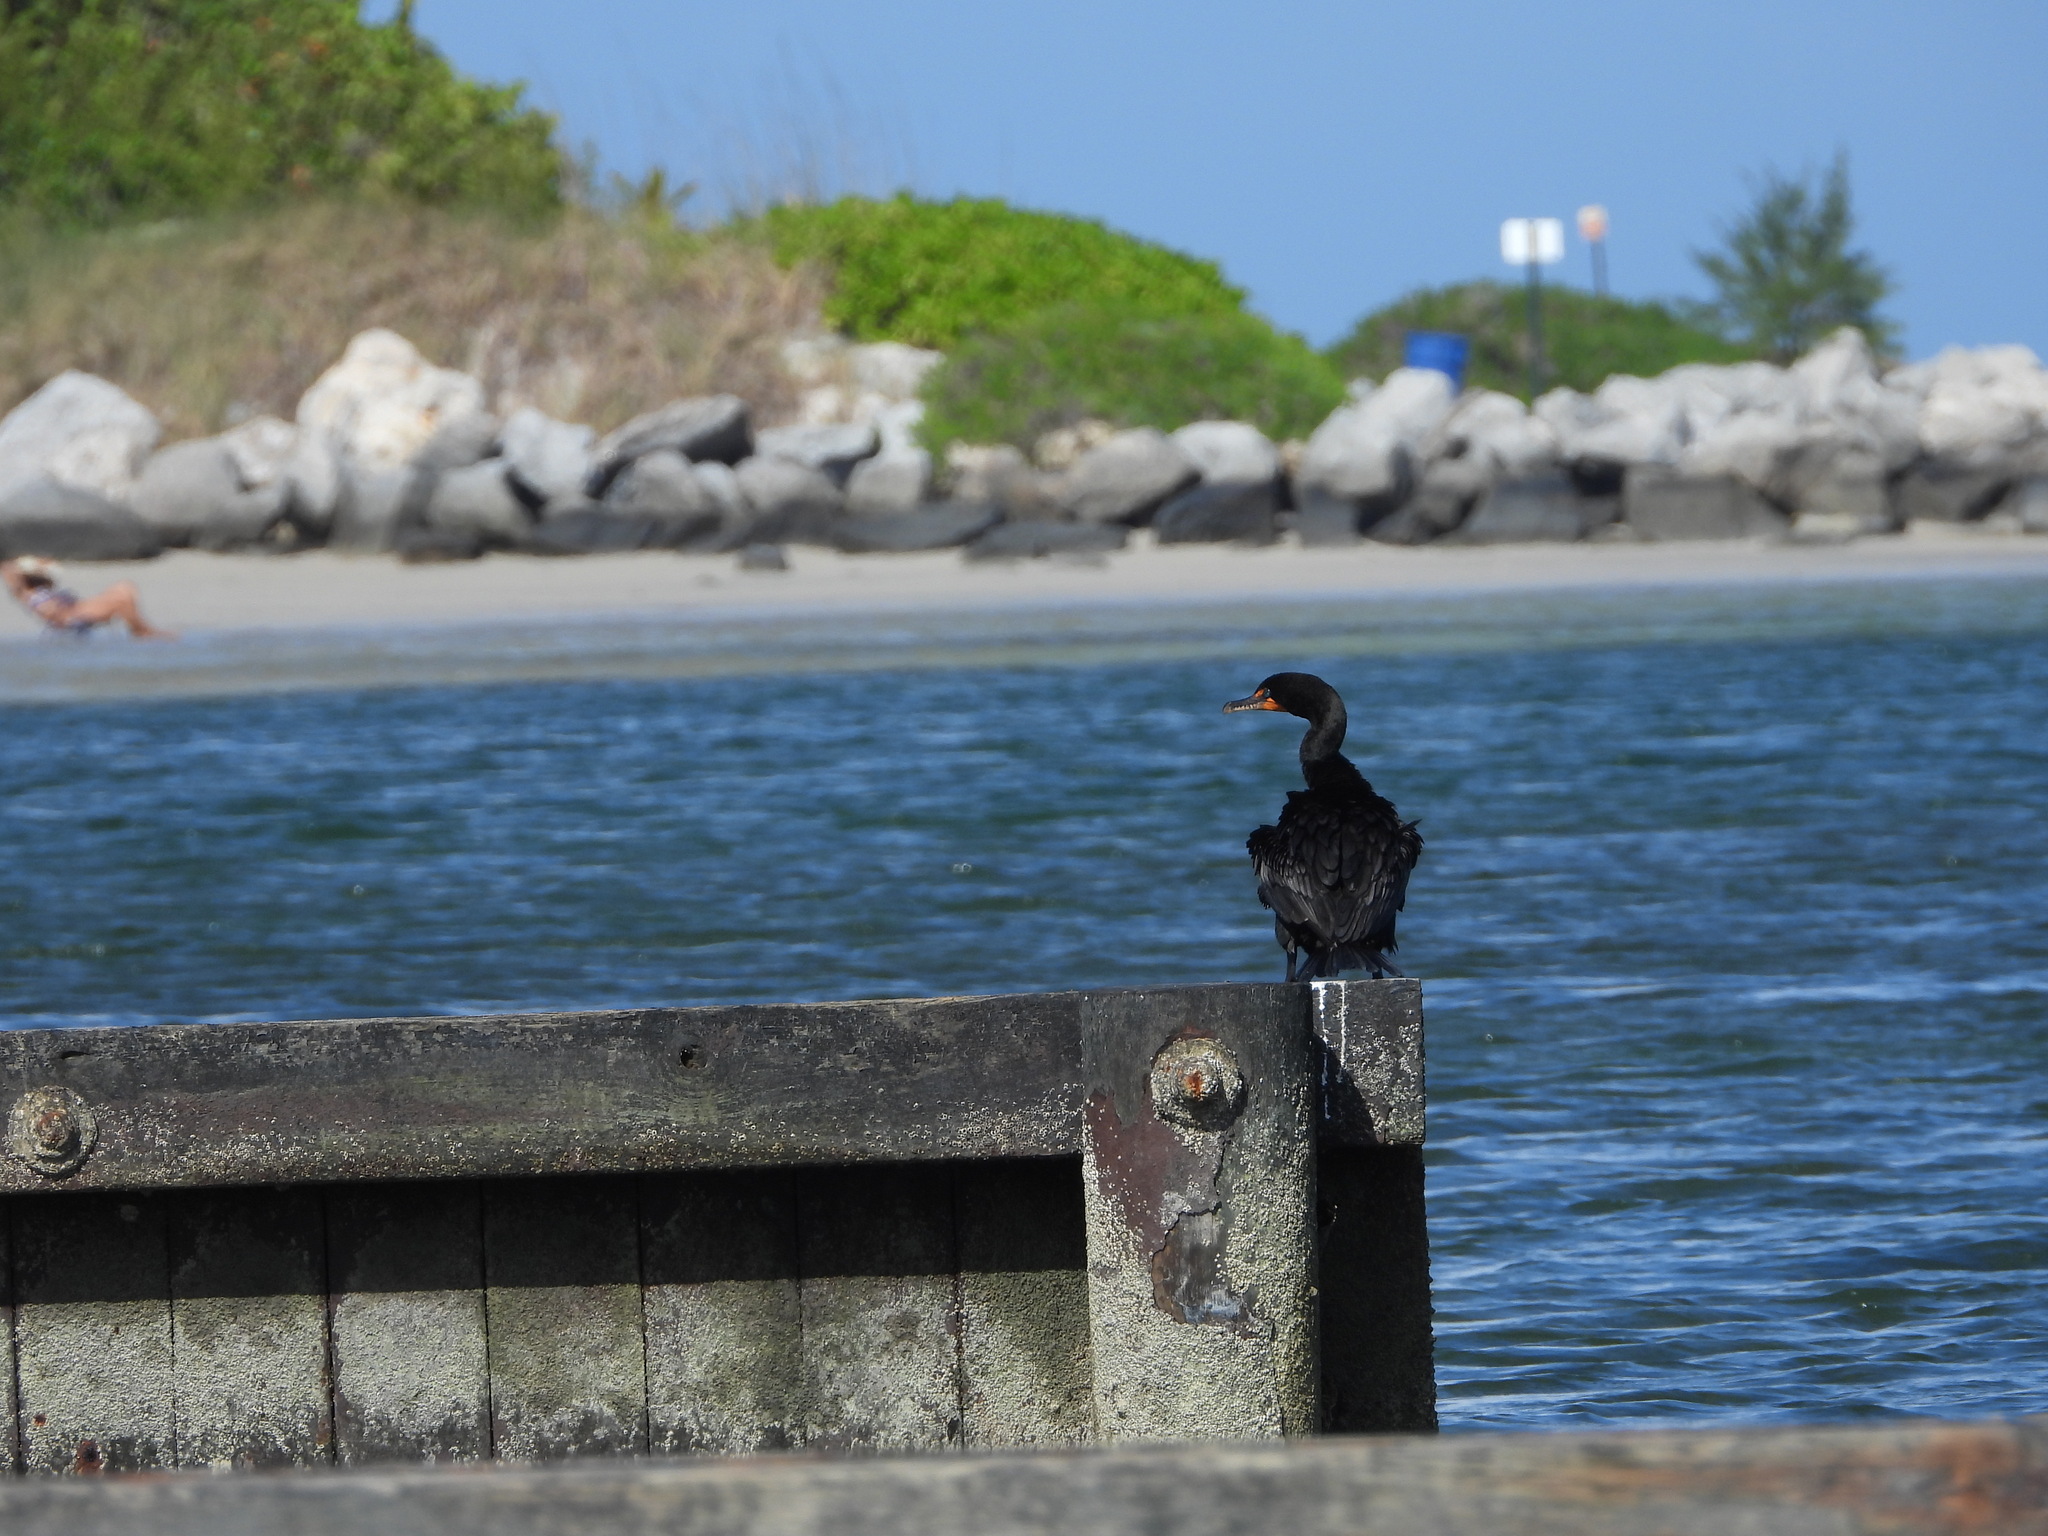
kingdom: Animalia
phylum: Chordata
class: Aves
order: Suliformes
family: Phalacrocoracidae
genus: Phalacrocorax
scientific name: Phalacrocorax auritus
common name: Double-crested cormorant
